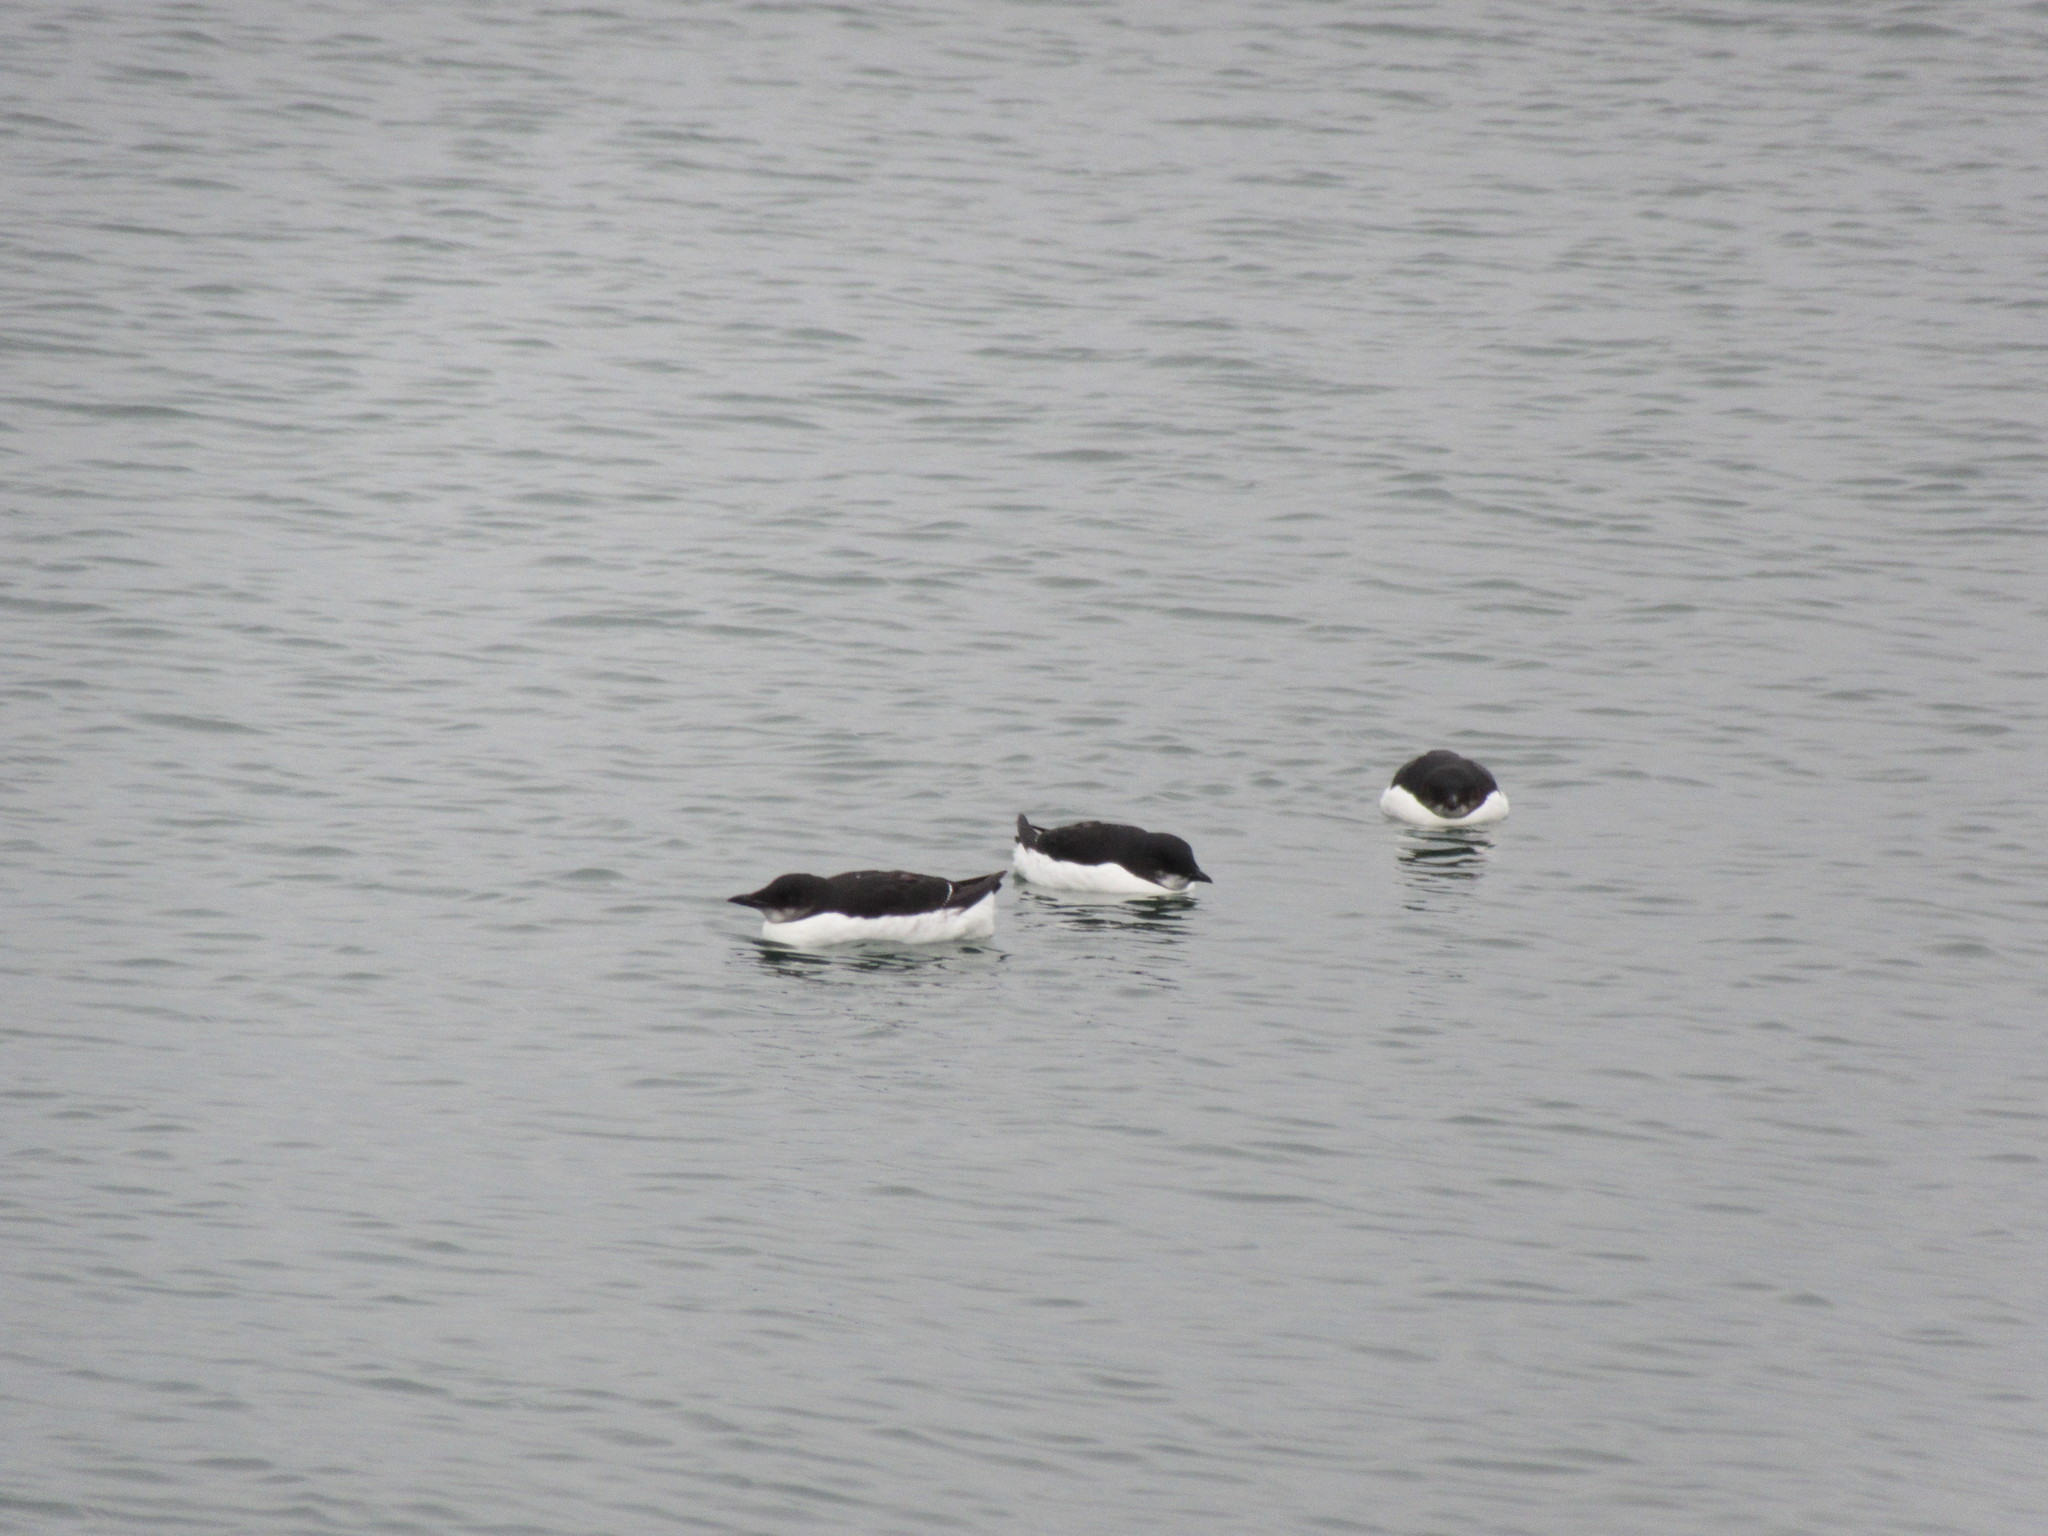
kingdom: Animalia
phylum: Chordata
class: Aves
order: Charadriiformes
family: Alcidae
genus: Uria
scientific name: Uria lomvia
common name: Thick-billed murre
